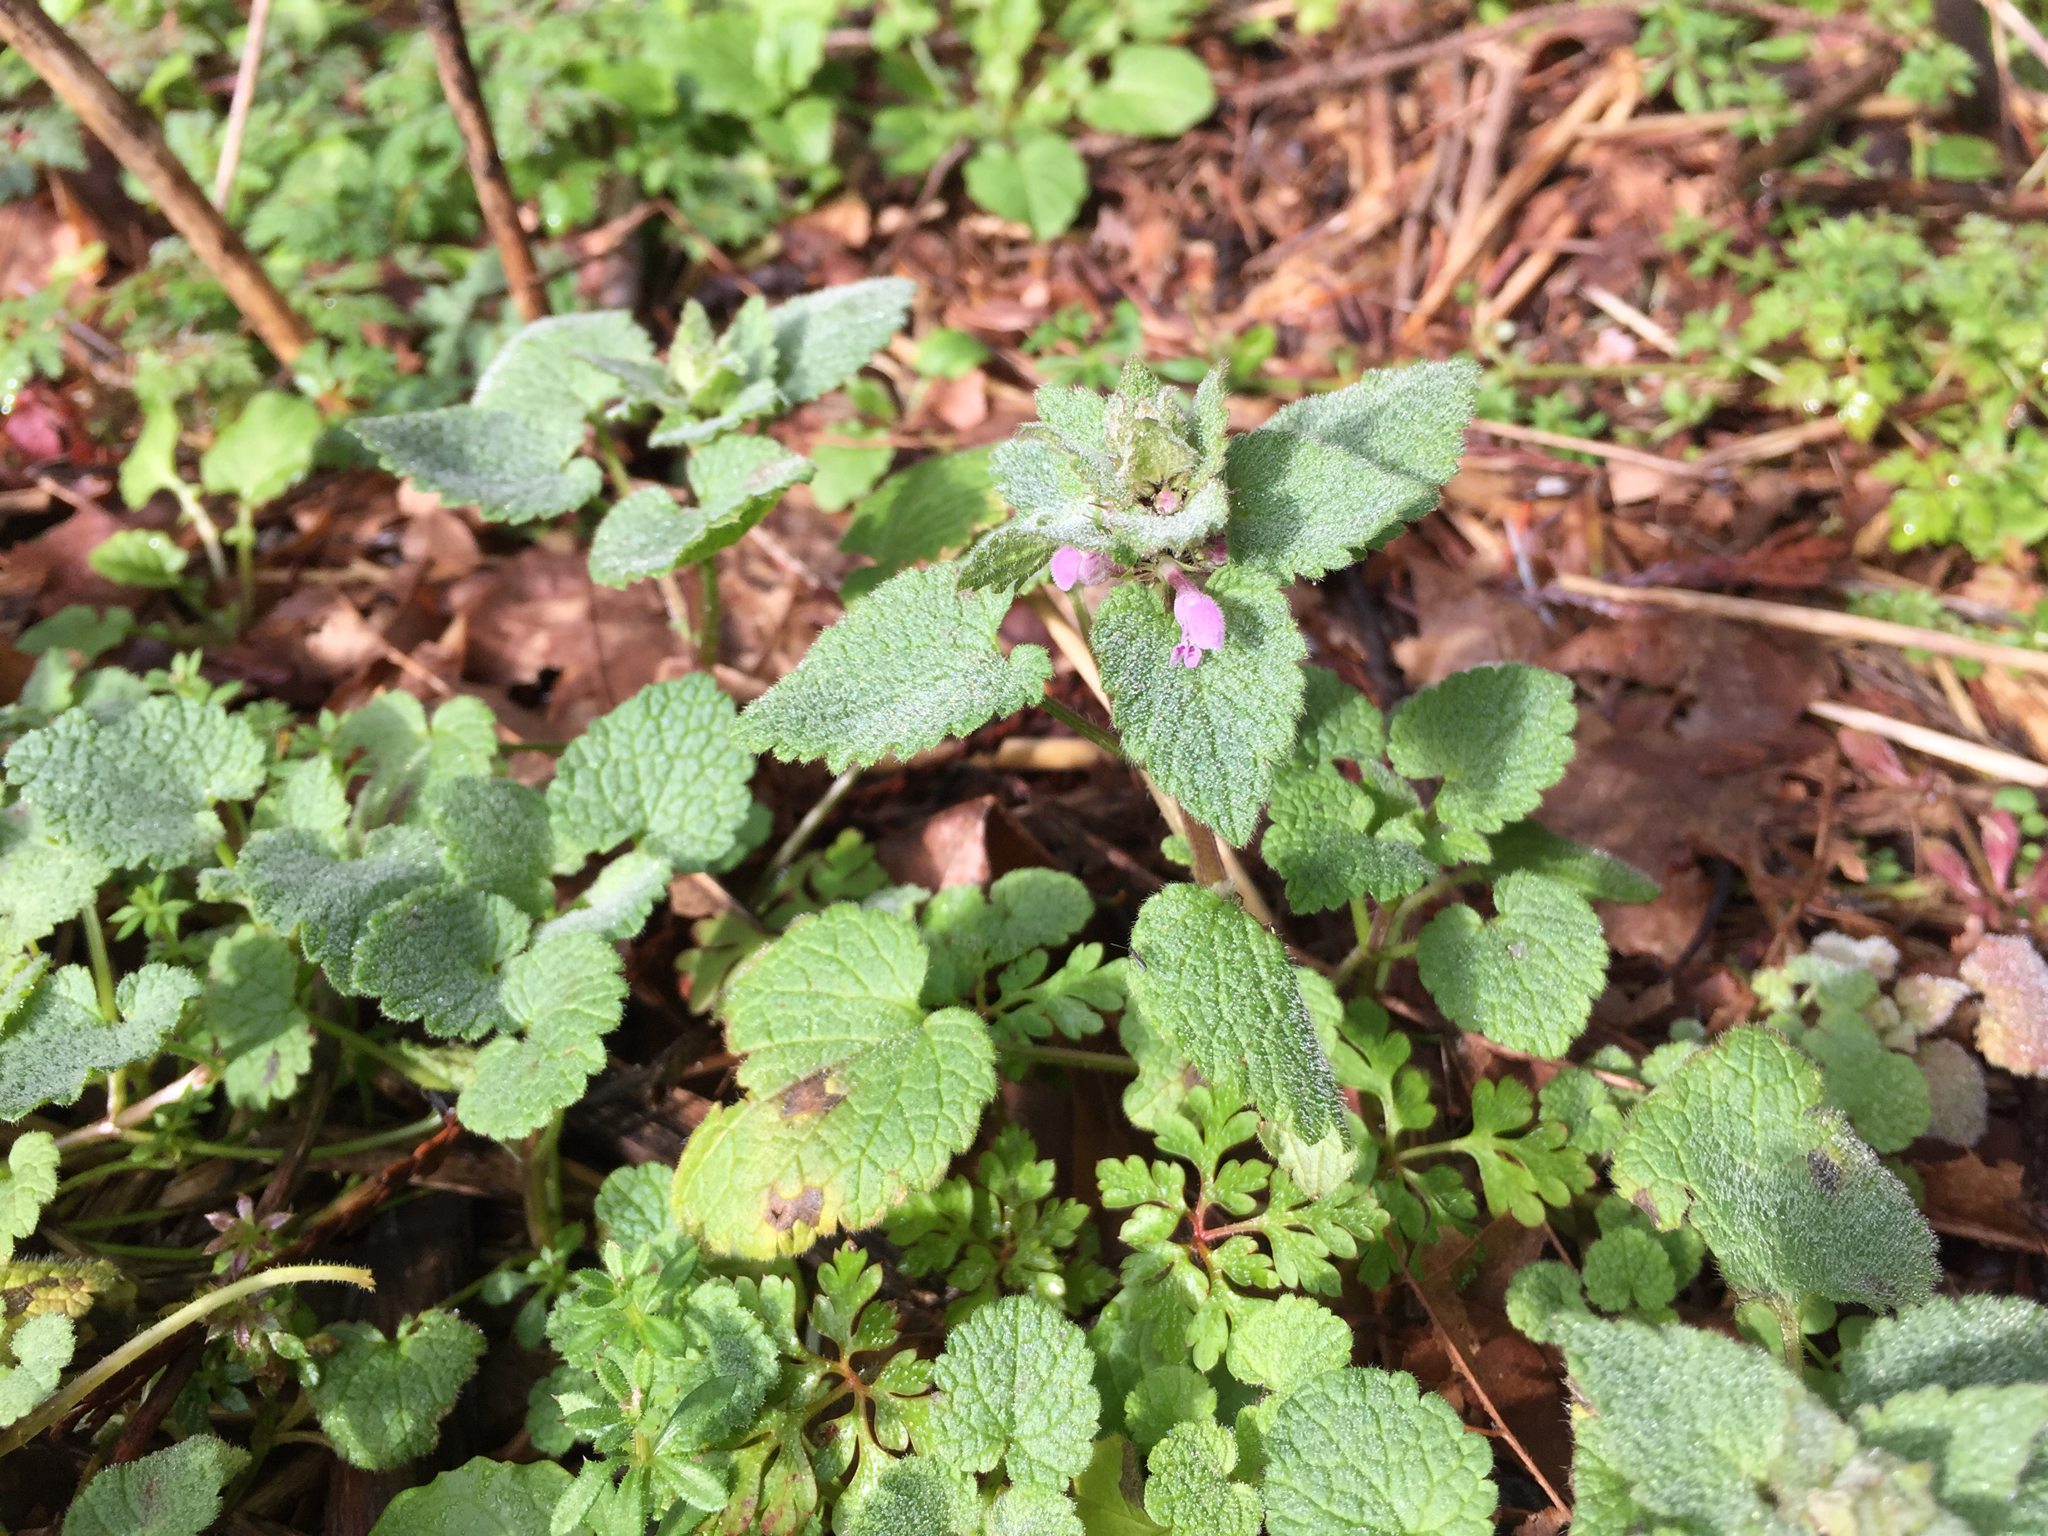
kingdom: Plantae
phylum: Tracheophyta
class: Magnoliopsida
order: Lamiales
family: Lamiaceae
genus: Lamium
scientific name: Lamium purpureum
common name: Red dead-nettle
